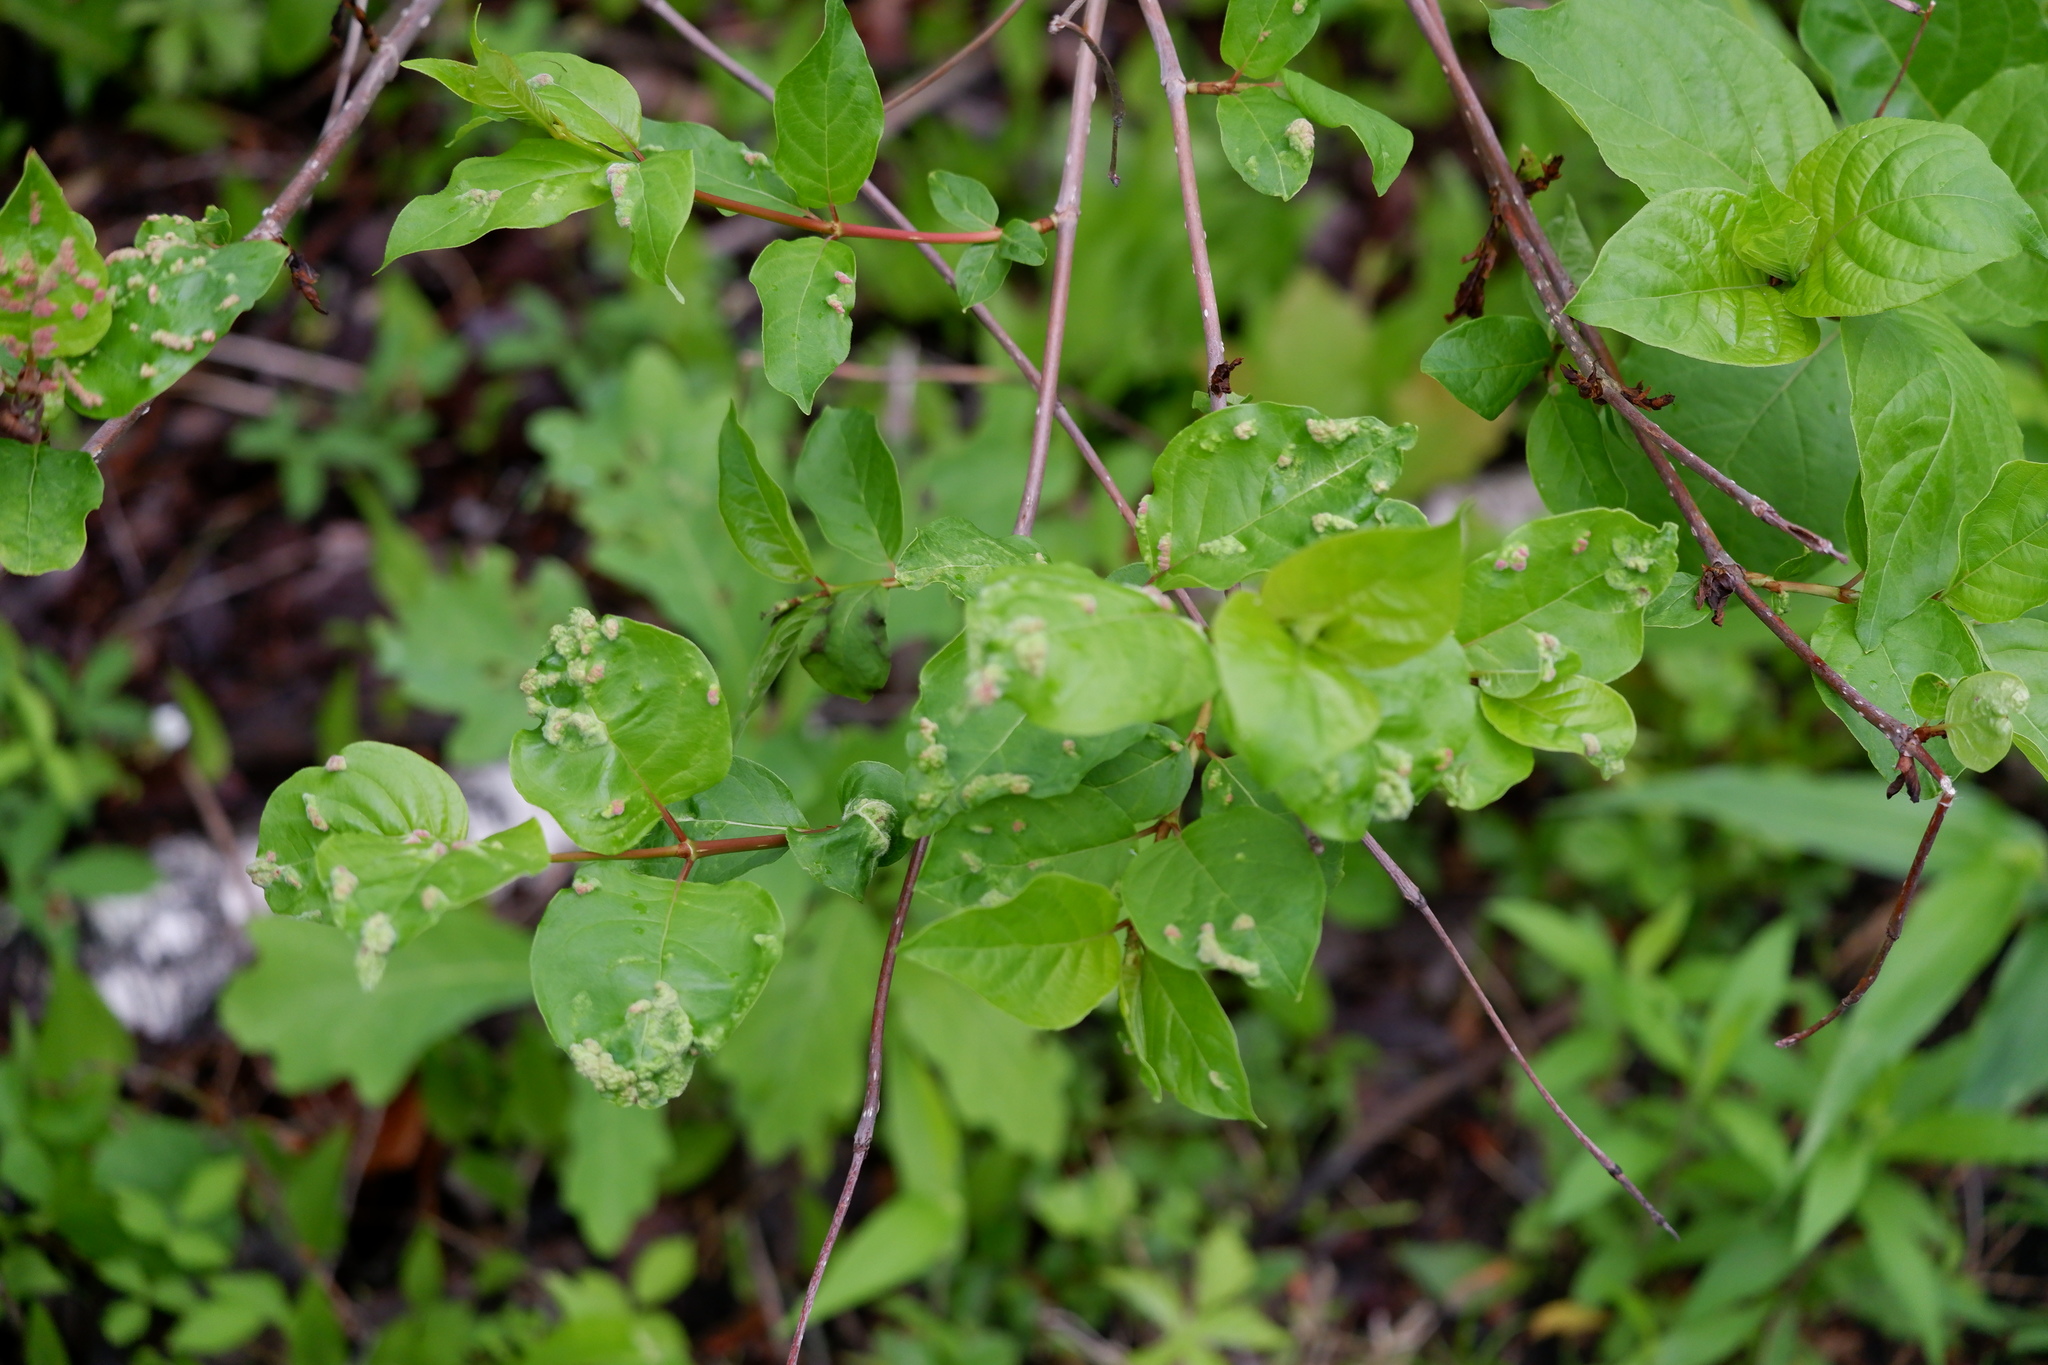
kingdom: Animalia
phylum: Arthropoda
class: Arachnida
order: Trombidiformes
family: Eriophyidae
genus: Aceria
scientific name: Aceria
